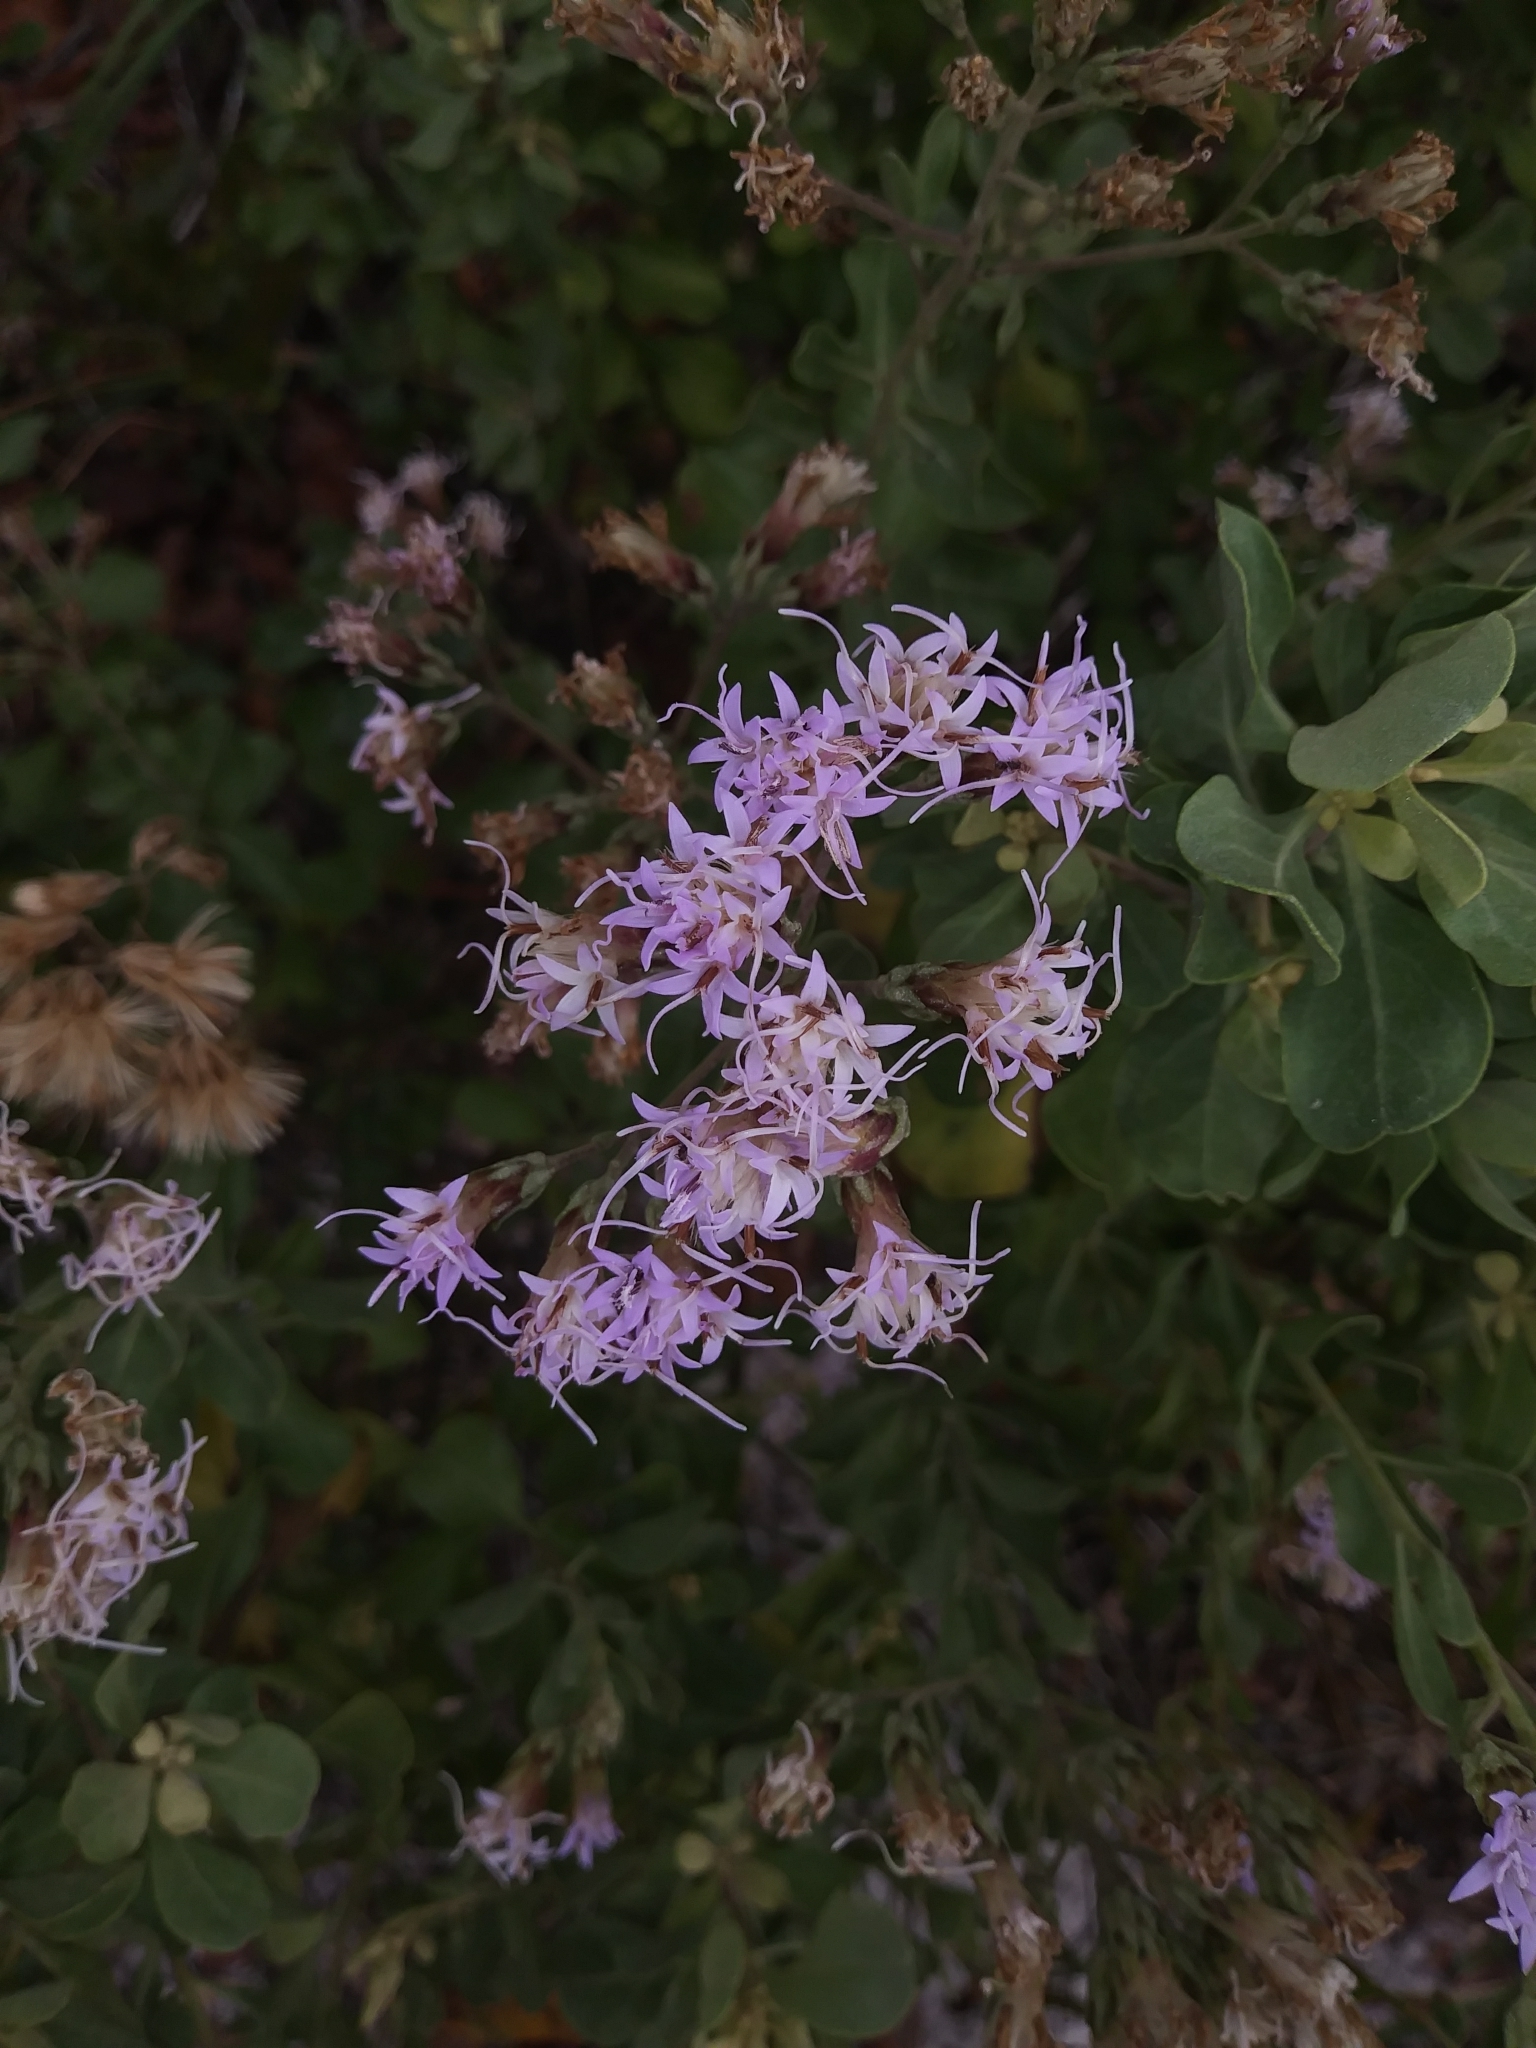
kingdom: Plantae
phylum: Tracheophyta
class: Magnoliopsida
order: Asterales
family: Asteraceae
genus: Garberia
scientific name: Garberia heterophylla
